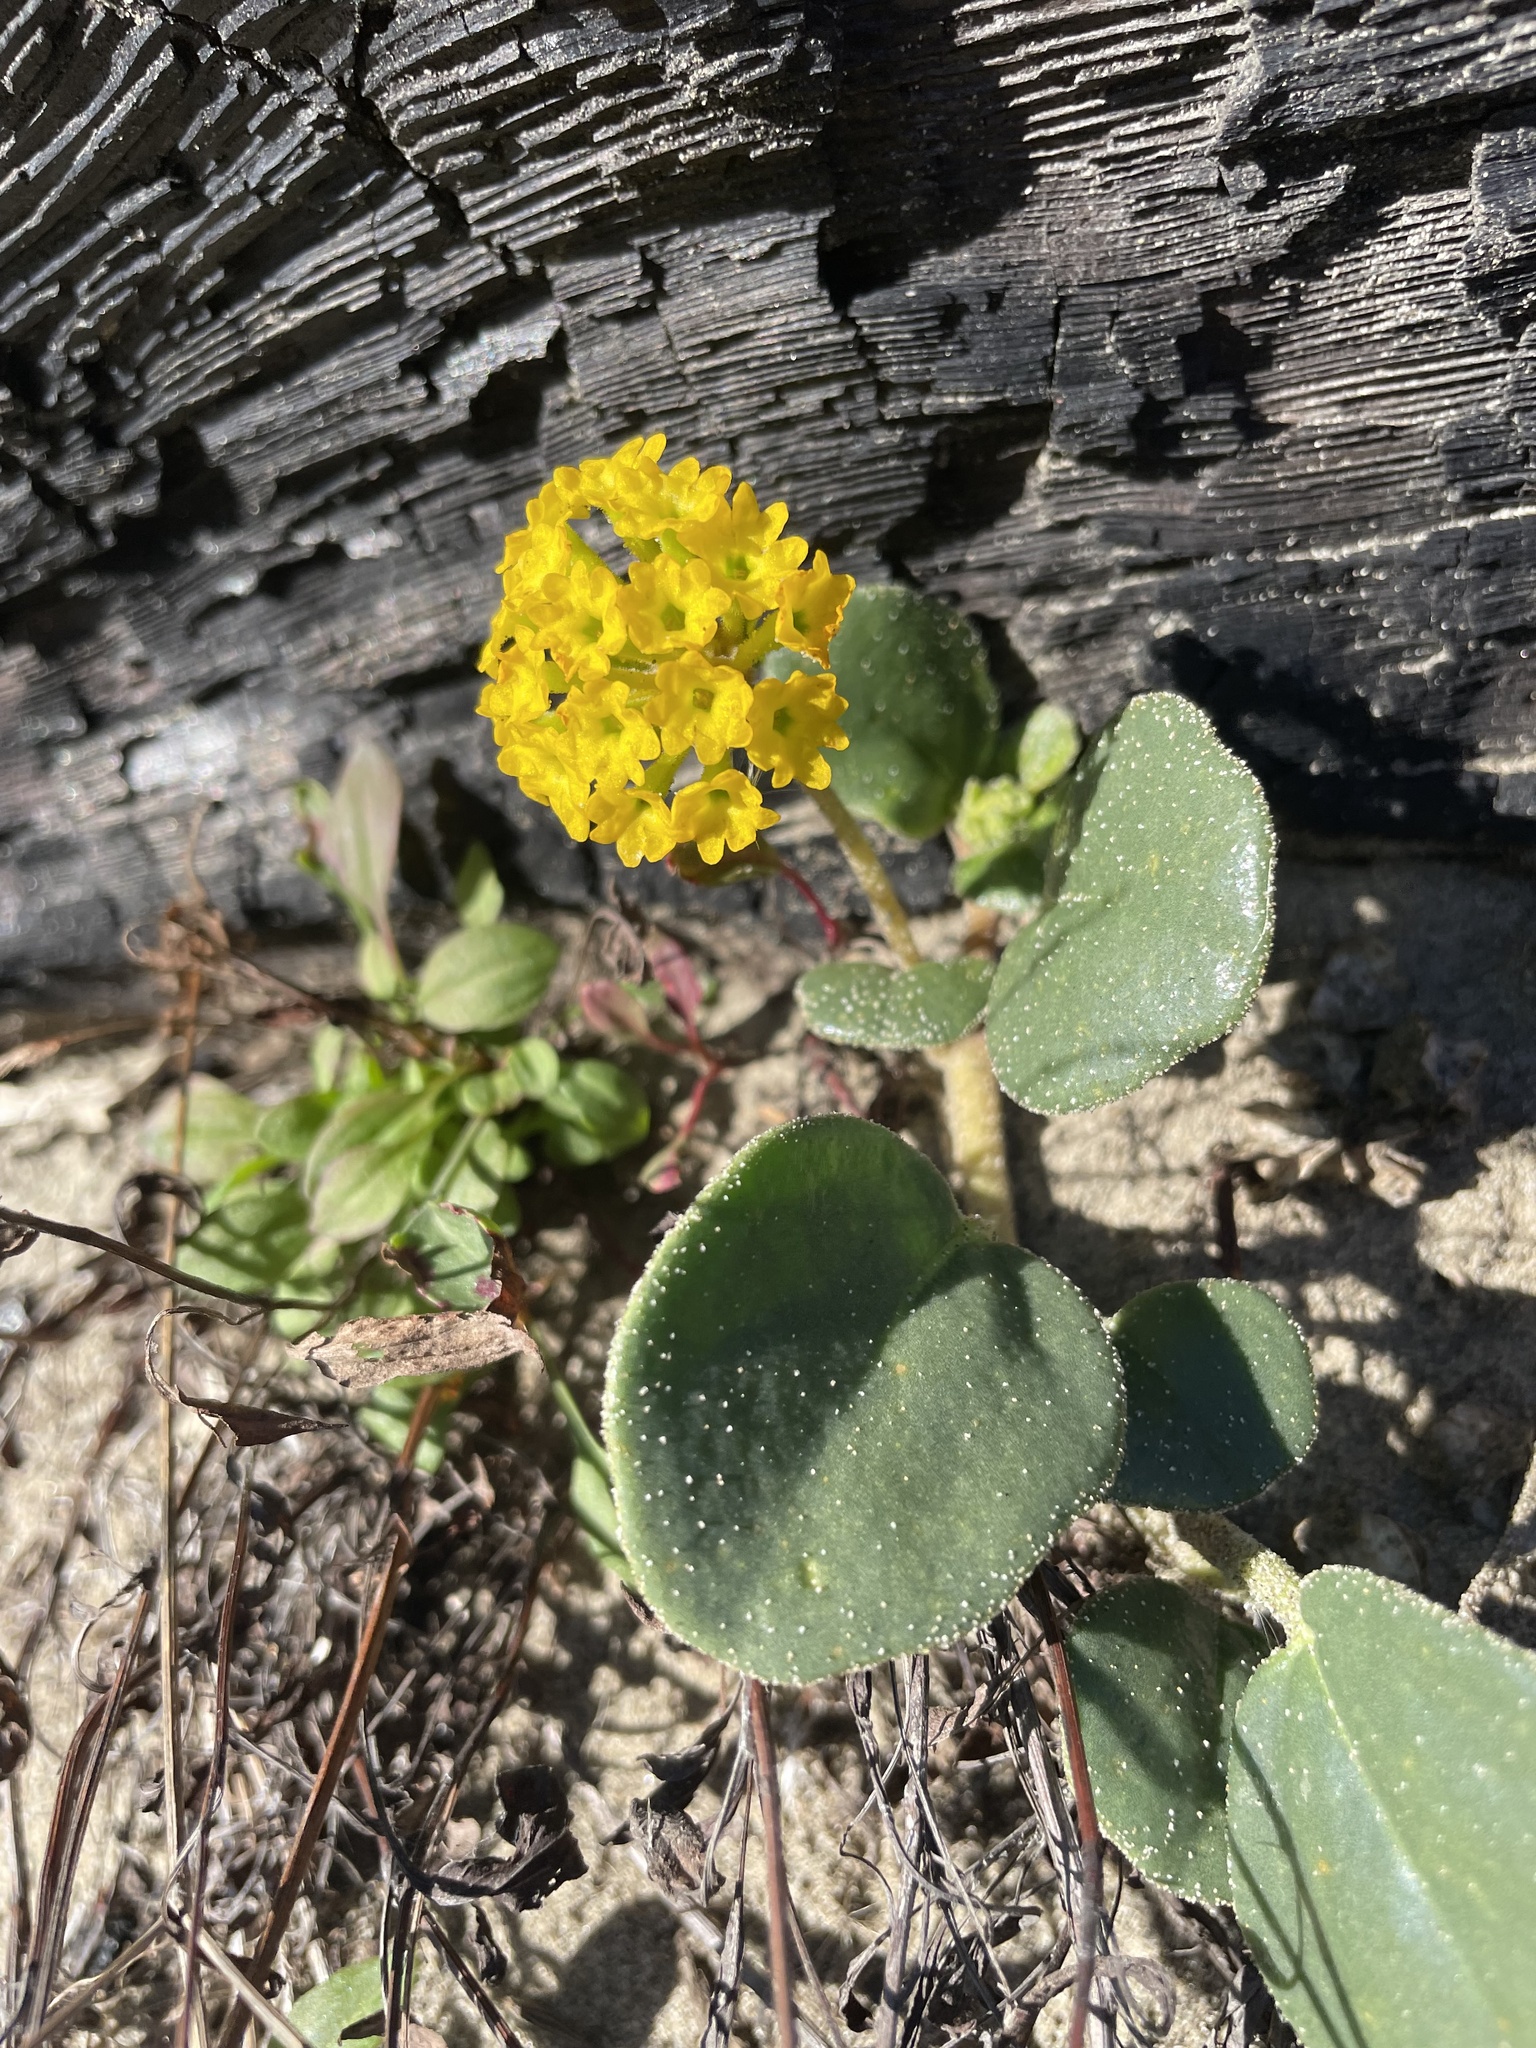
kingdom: Plantae
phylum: Tracheophyta
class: Magnoliopsida
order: Caryophyllales
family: Nyctaginaceae
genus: Abronia
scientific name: Abronia latifolia
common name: Yellow sand-verbena
